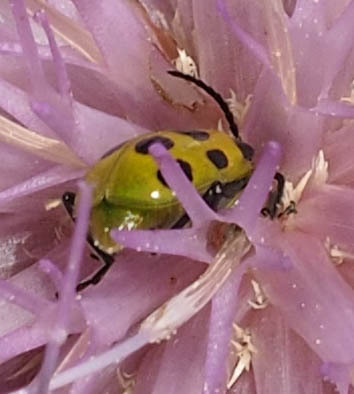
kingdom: Animalia
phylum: Arthropoda
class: Insecta
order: Coleoptera
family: Chrysomelidae
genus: Diabrotica
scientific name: Diabrotica undecimpunctata
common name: Spotted cucumber beetle
